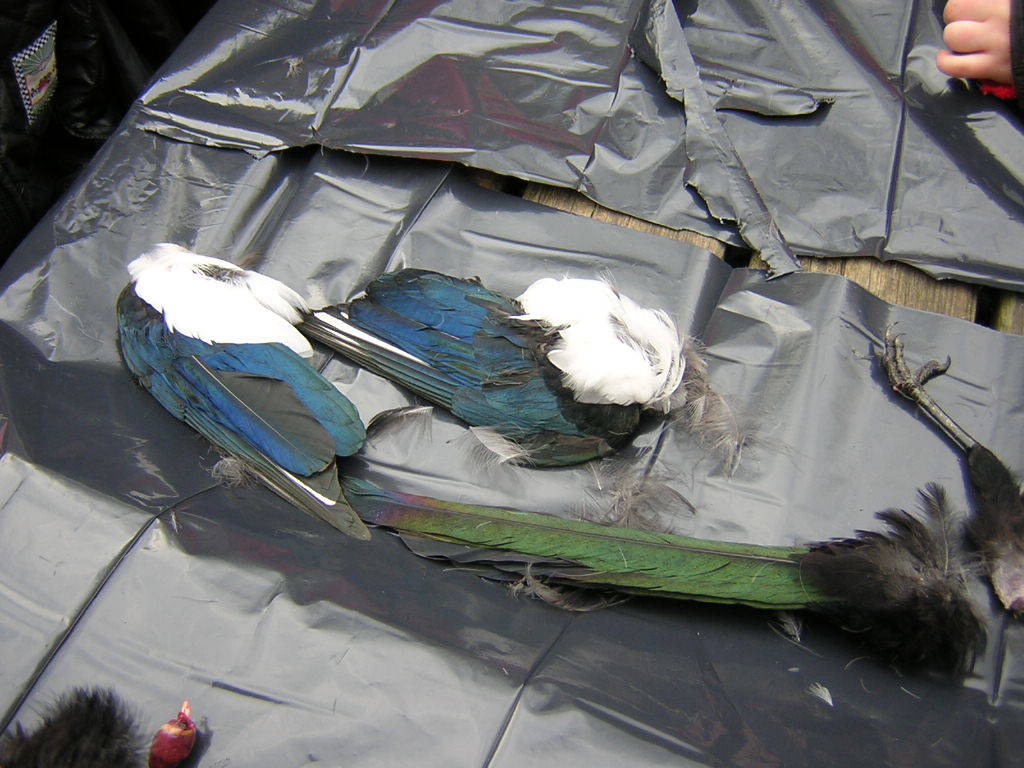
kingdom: Animalia
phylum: Chordata
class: Aves
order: Passeriformes
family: Corvidae
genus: Pica
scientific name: Pica pica
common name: Eurasian magpie
